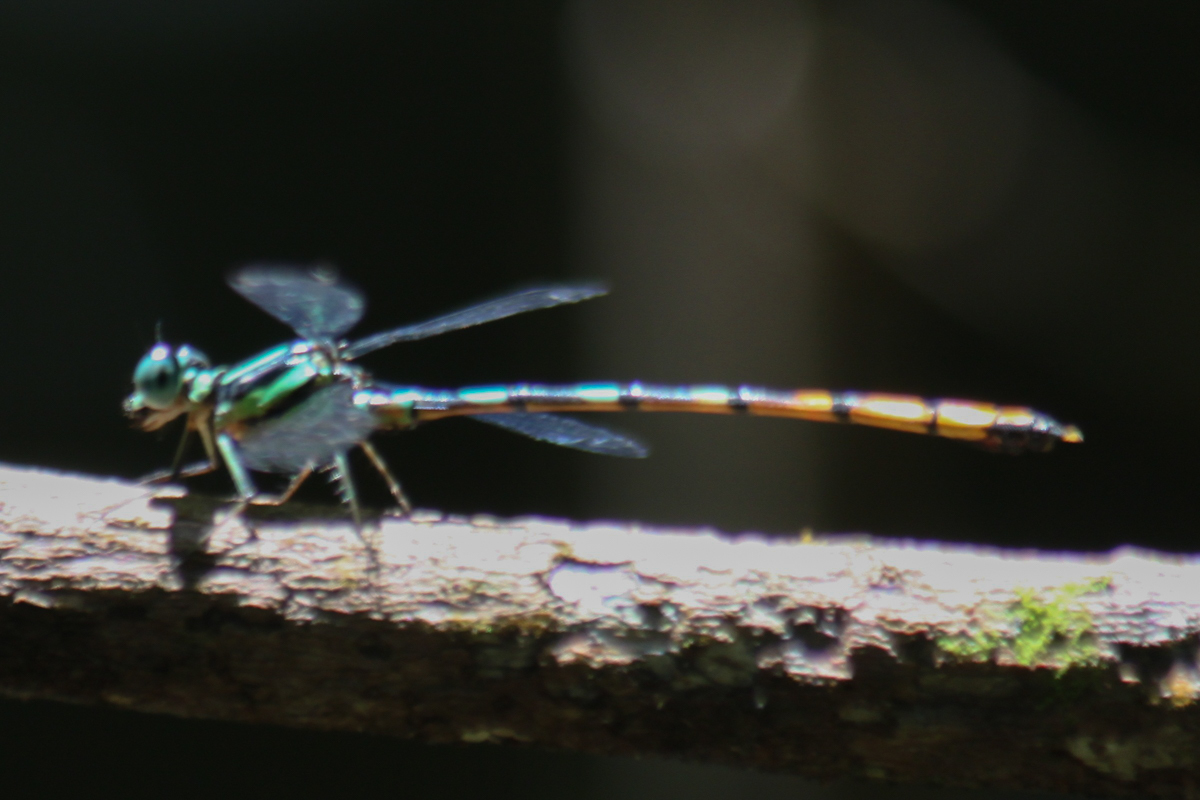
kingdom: Animalia
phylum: Arthropoda
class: Insecta
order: Odonata
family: Philosinidae
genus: Rhinagrion
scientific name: Rhinagrion viridatum
